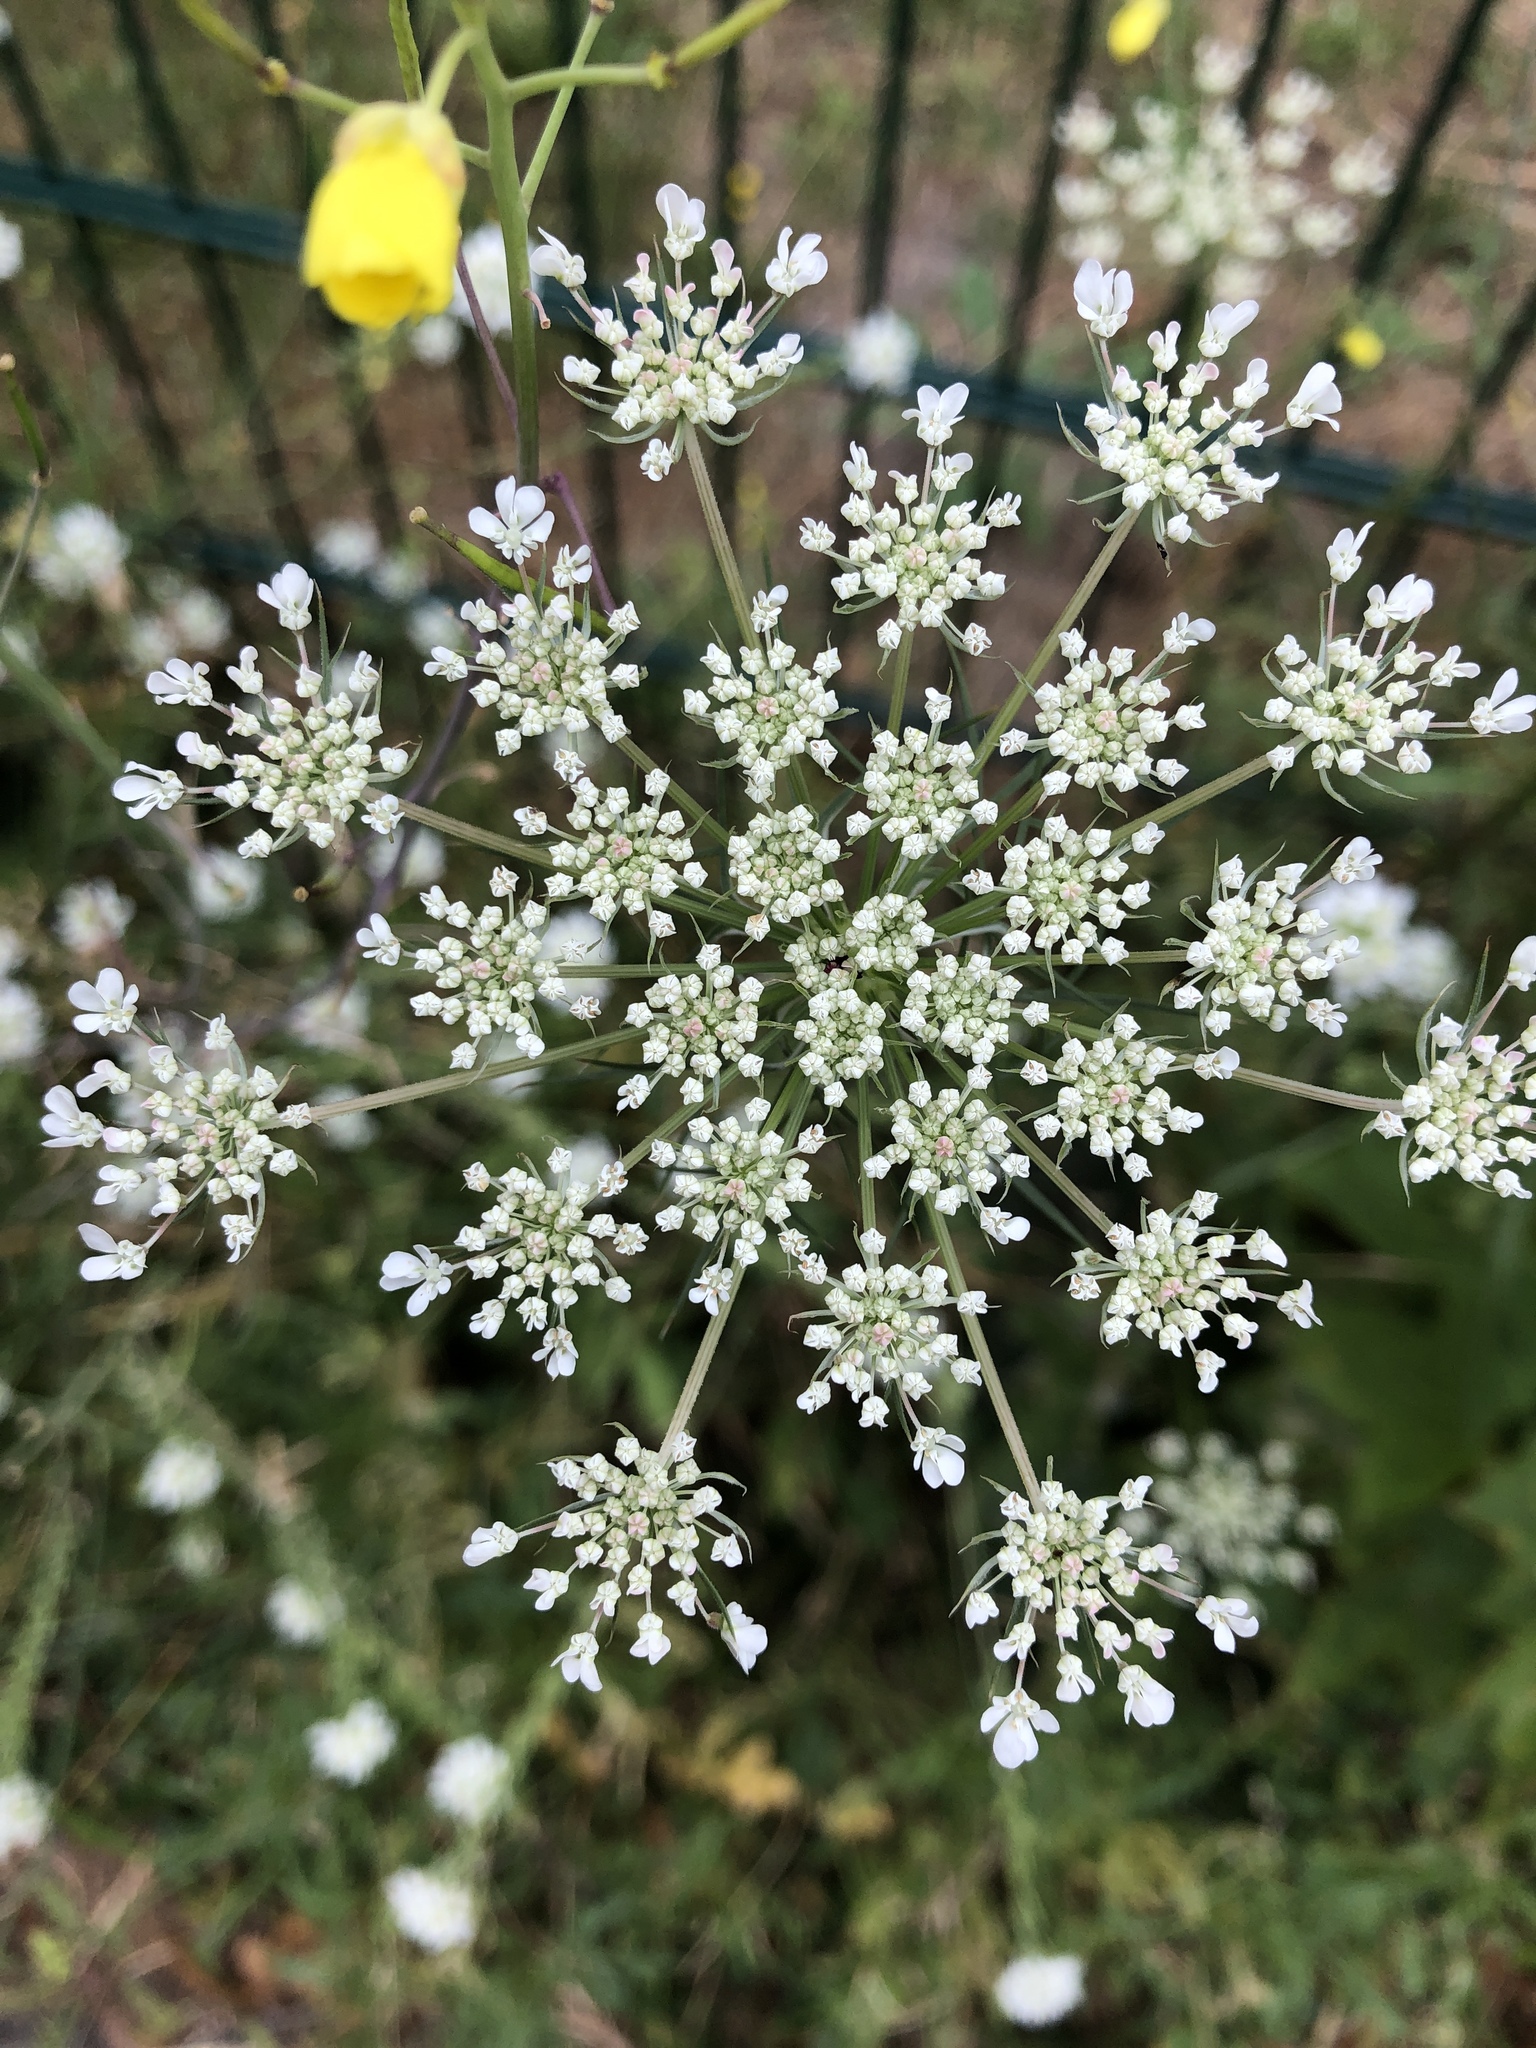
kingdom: Plantae
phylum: Tracheophyta
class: Magnoliopsida
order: Apiales
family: Apiaceae
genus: Daucus
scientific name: Daucus carota
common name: Wild carrot
